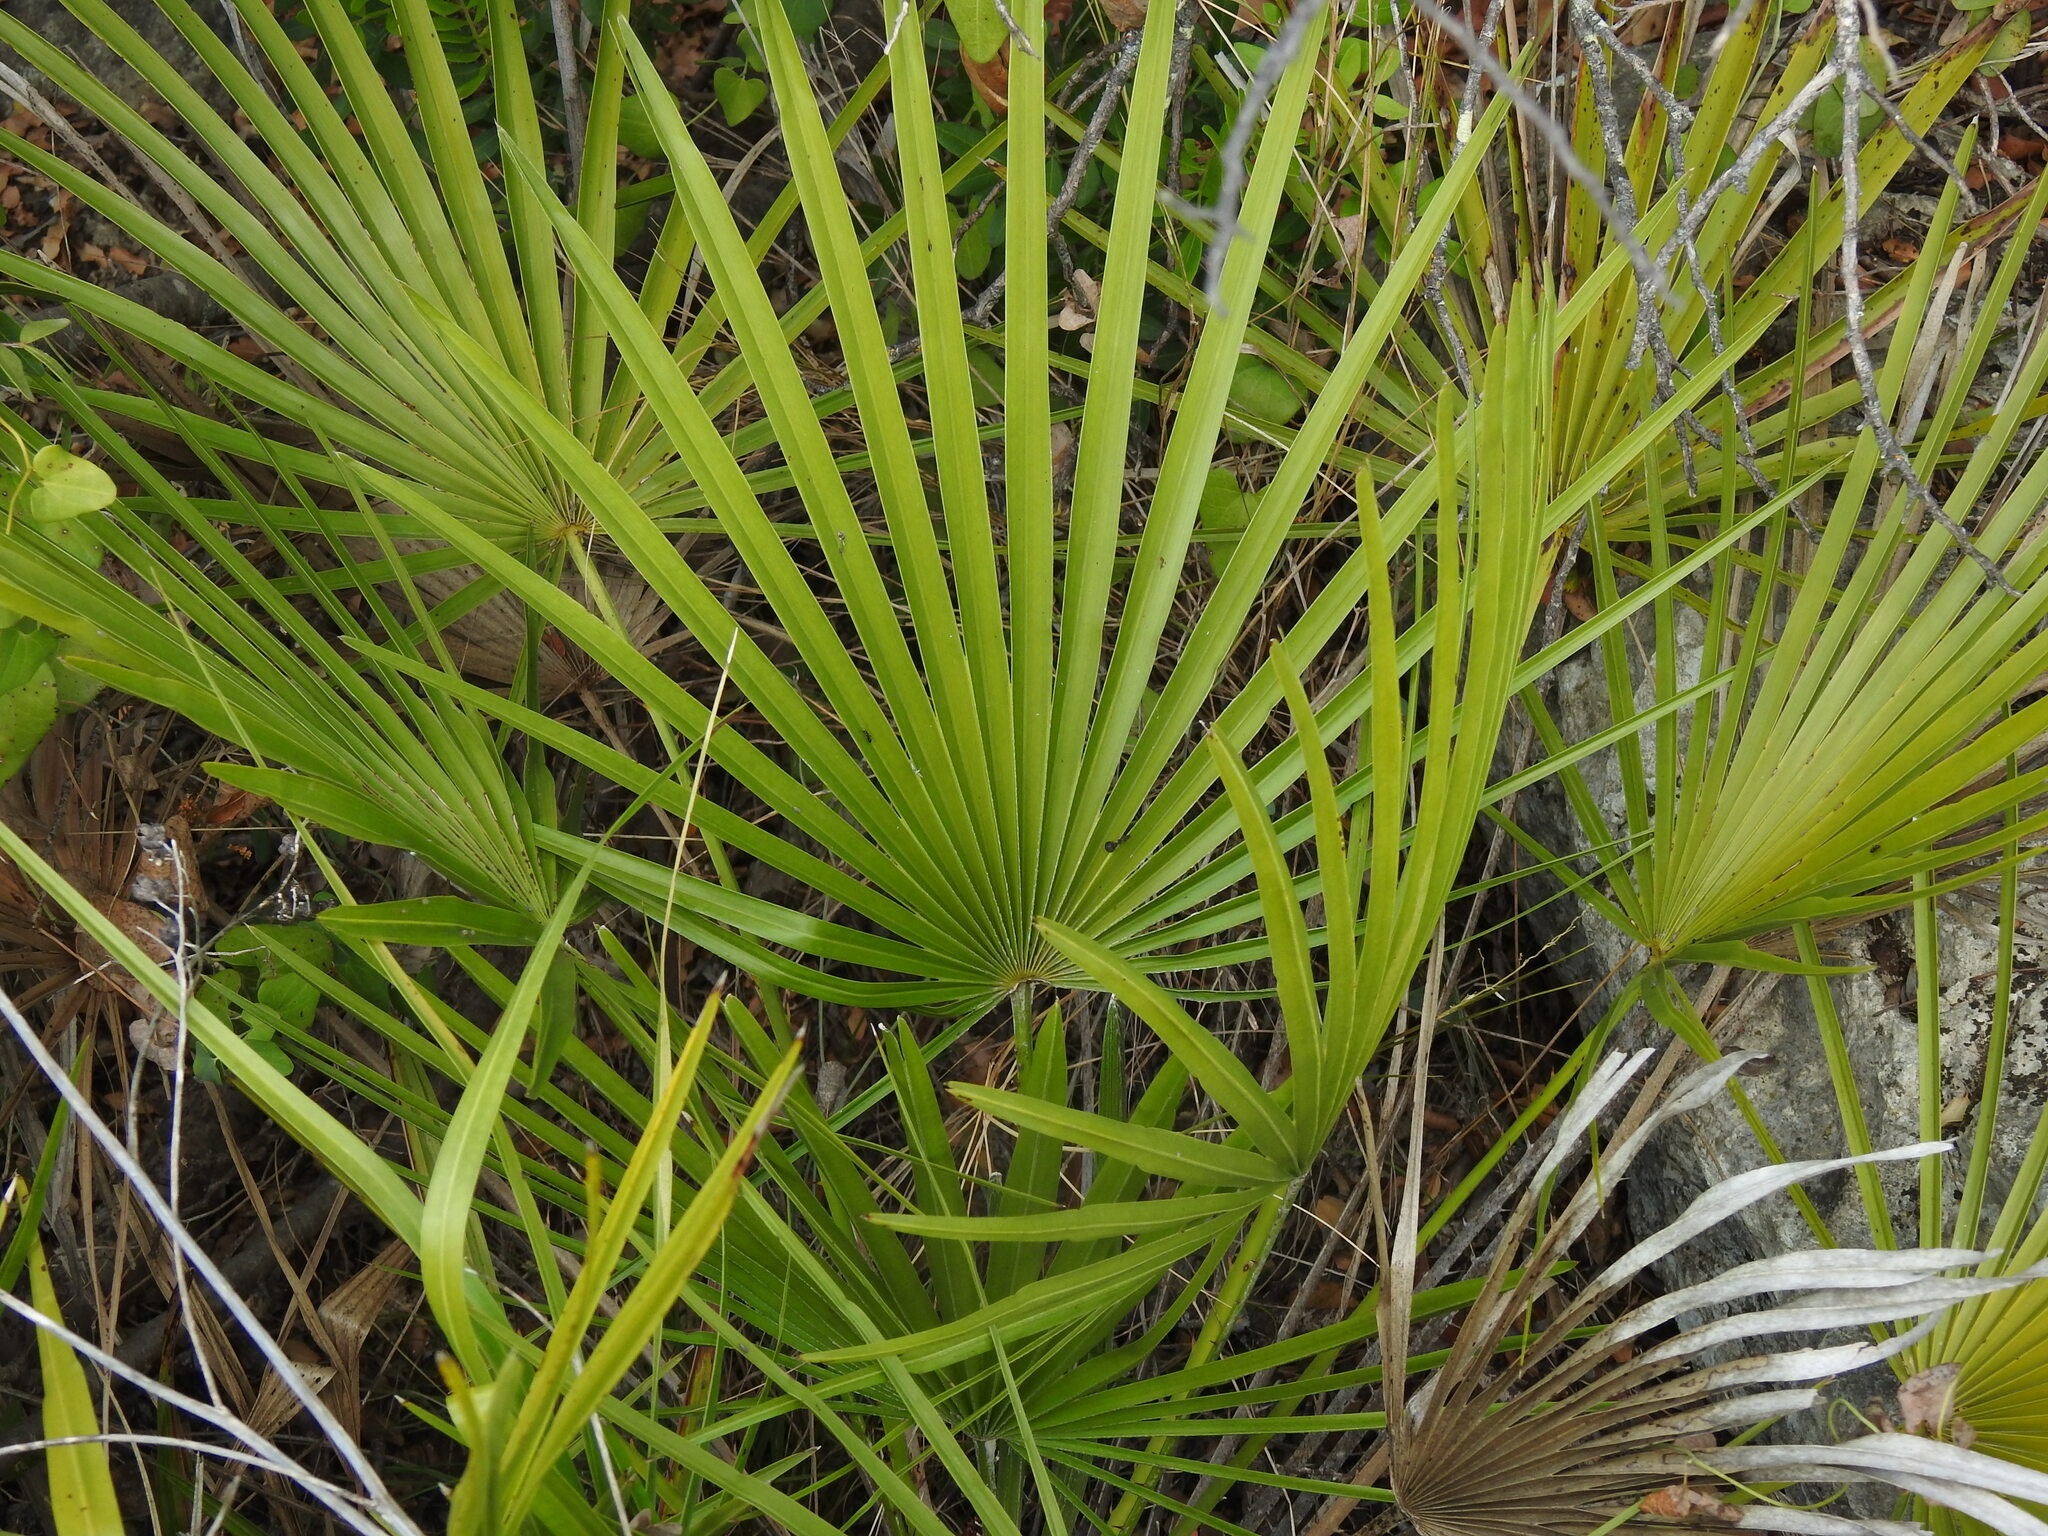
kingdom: Plantae
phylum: Tracheophyta
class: Liliopsida
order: Arecales
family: Arecaceae
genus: Chamaerops
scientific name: Chamaerops humilis
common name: Dwarf fan palm
